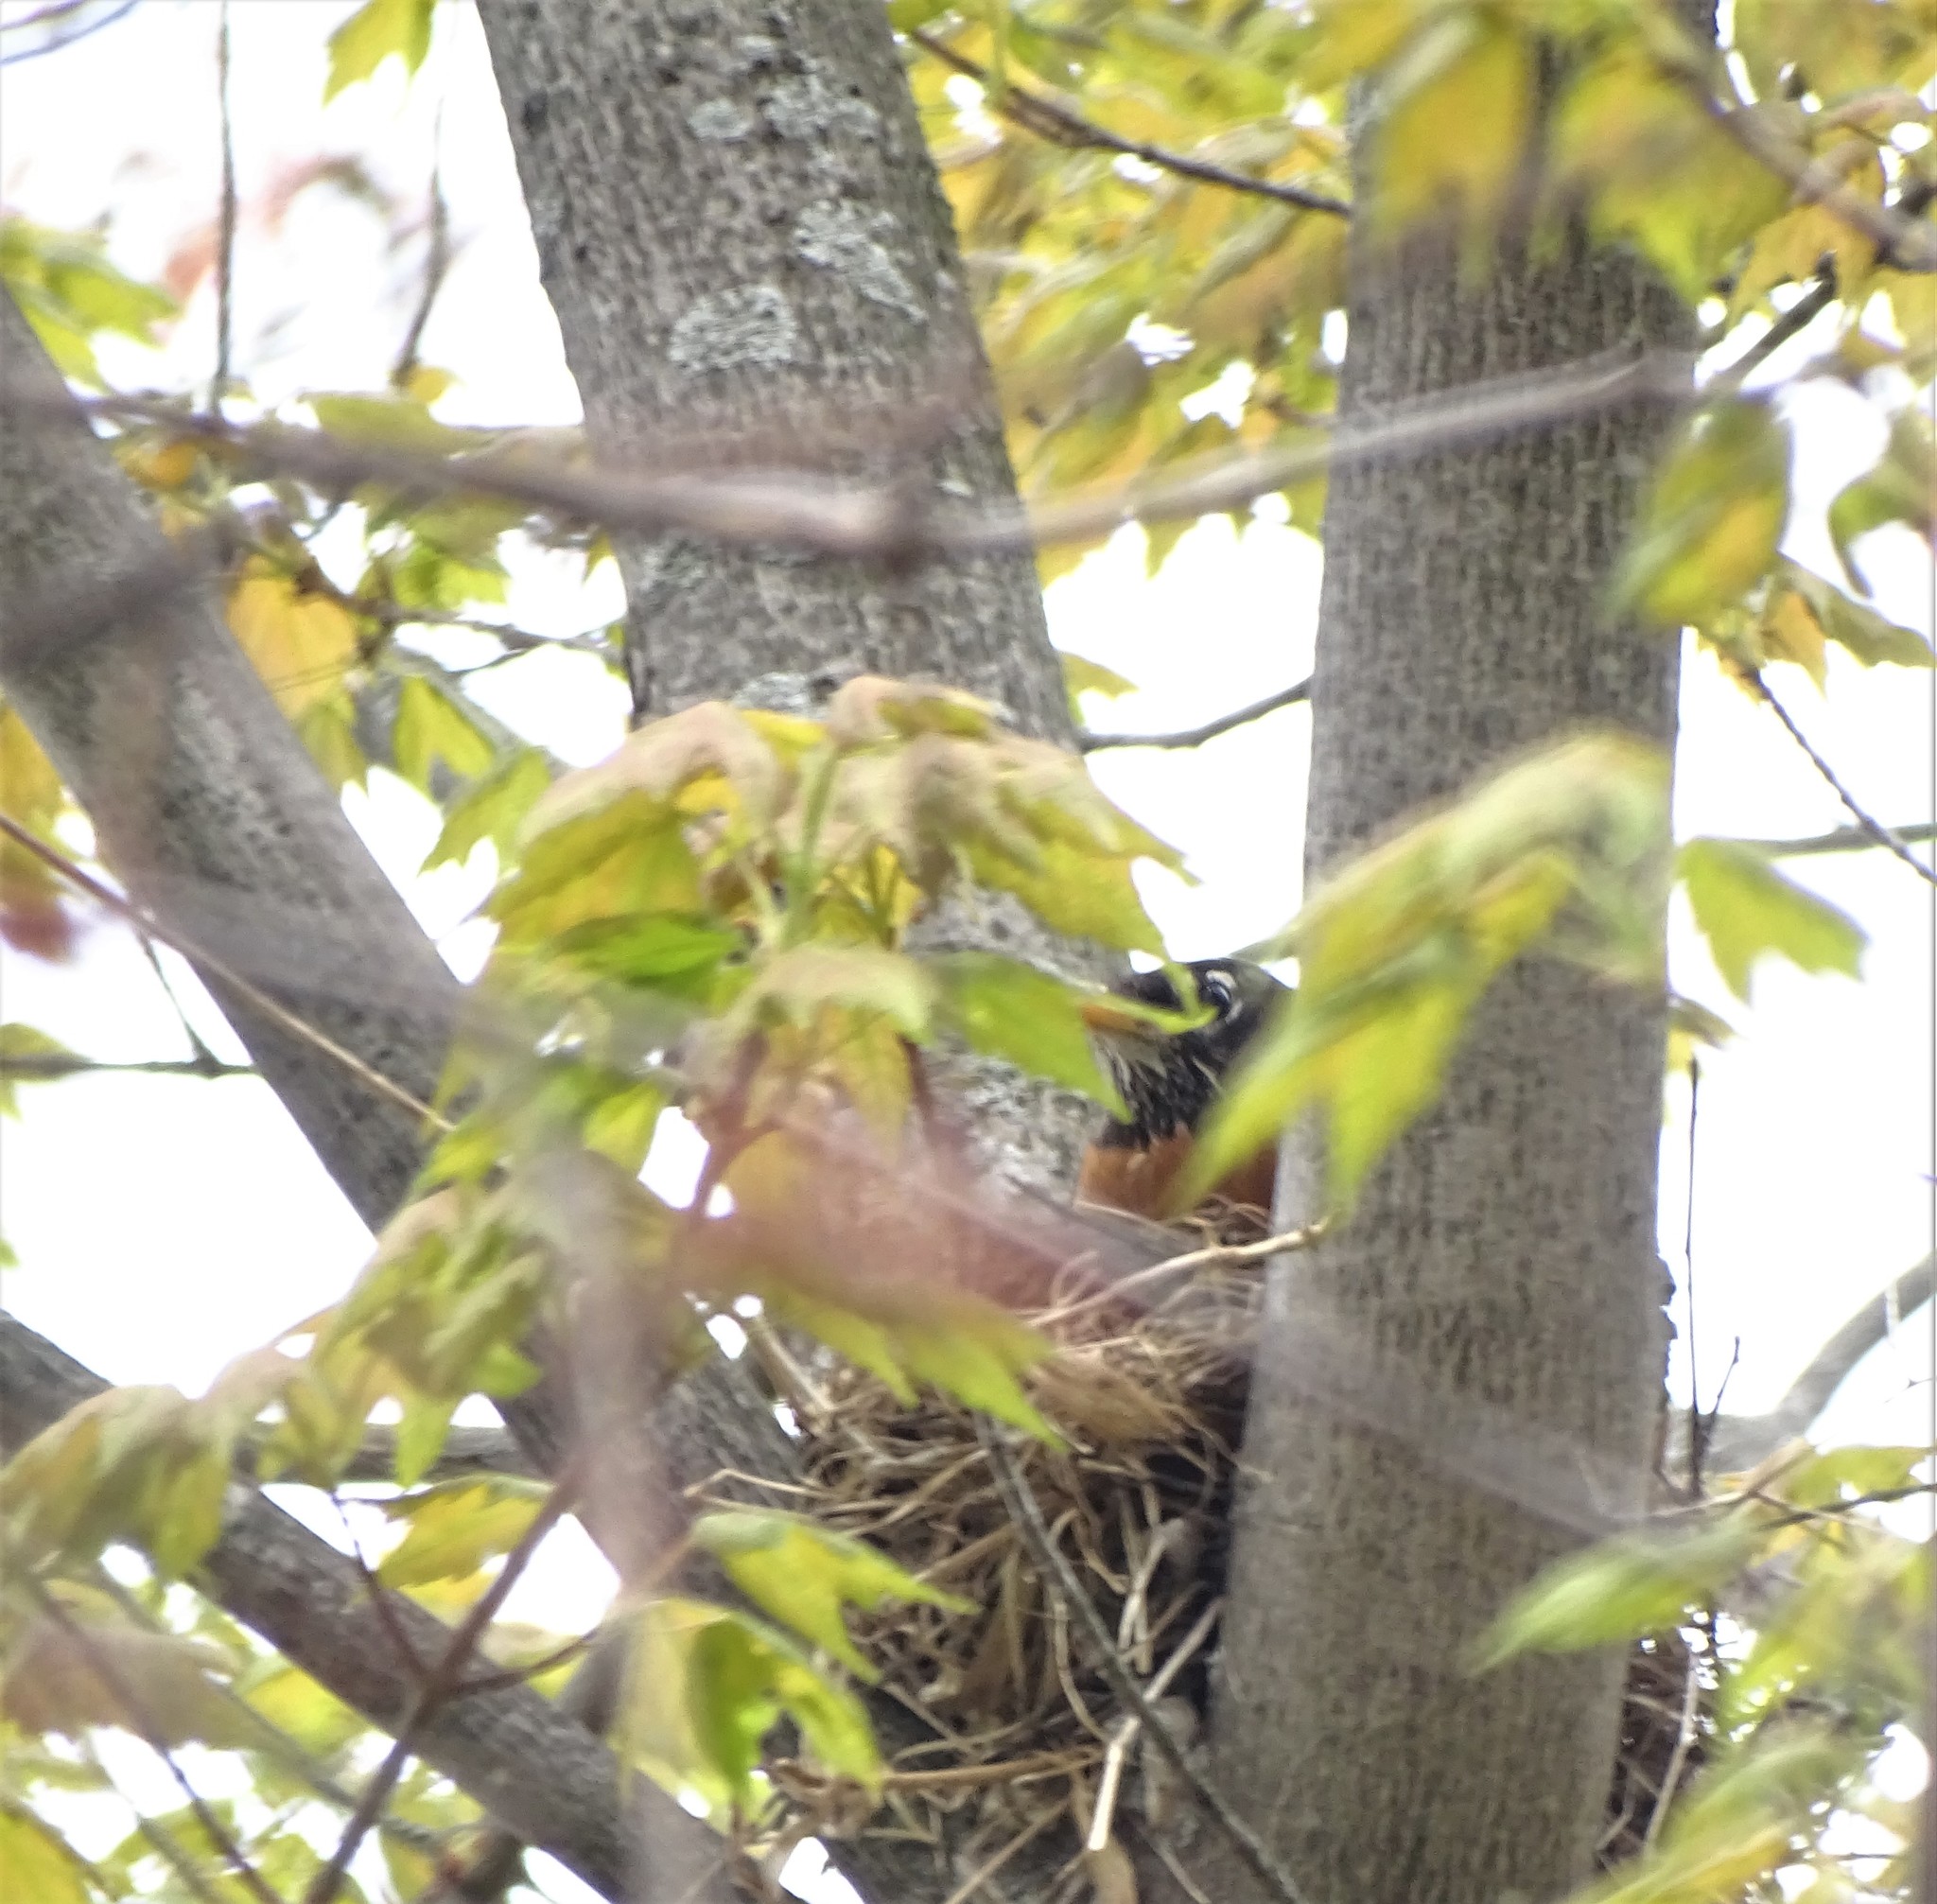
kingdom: Animalia
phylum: Chordata
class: Aves
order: Passeriformes
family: Turdidae
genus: Turdus
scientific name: Turdus migratorius
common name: American robin
